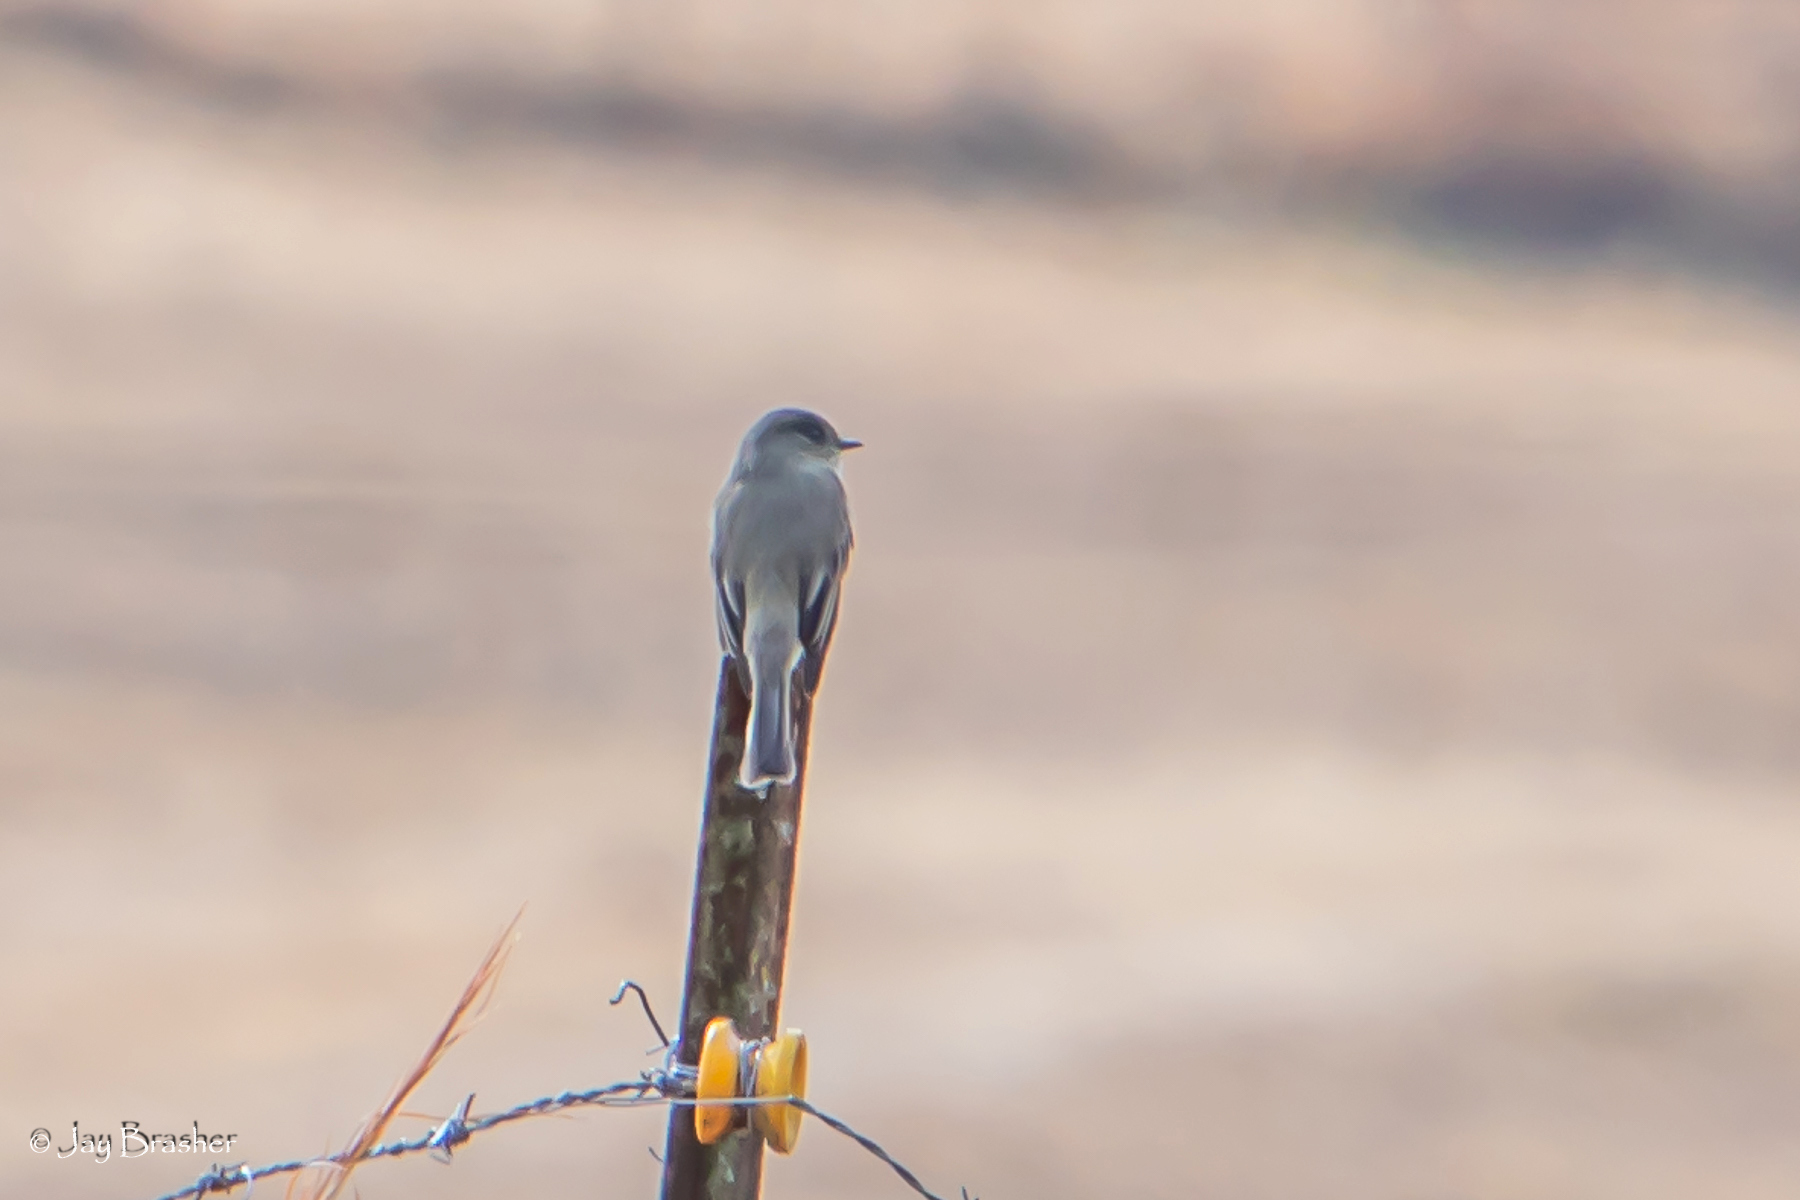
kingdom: Animalia
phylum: Chordata
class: Aves
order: Passeriformes
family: Tyrannidae
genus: Sayornis
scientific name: Sayornis phoebe
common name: Eastern phoebe
